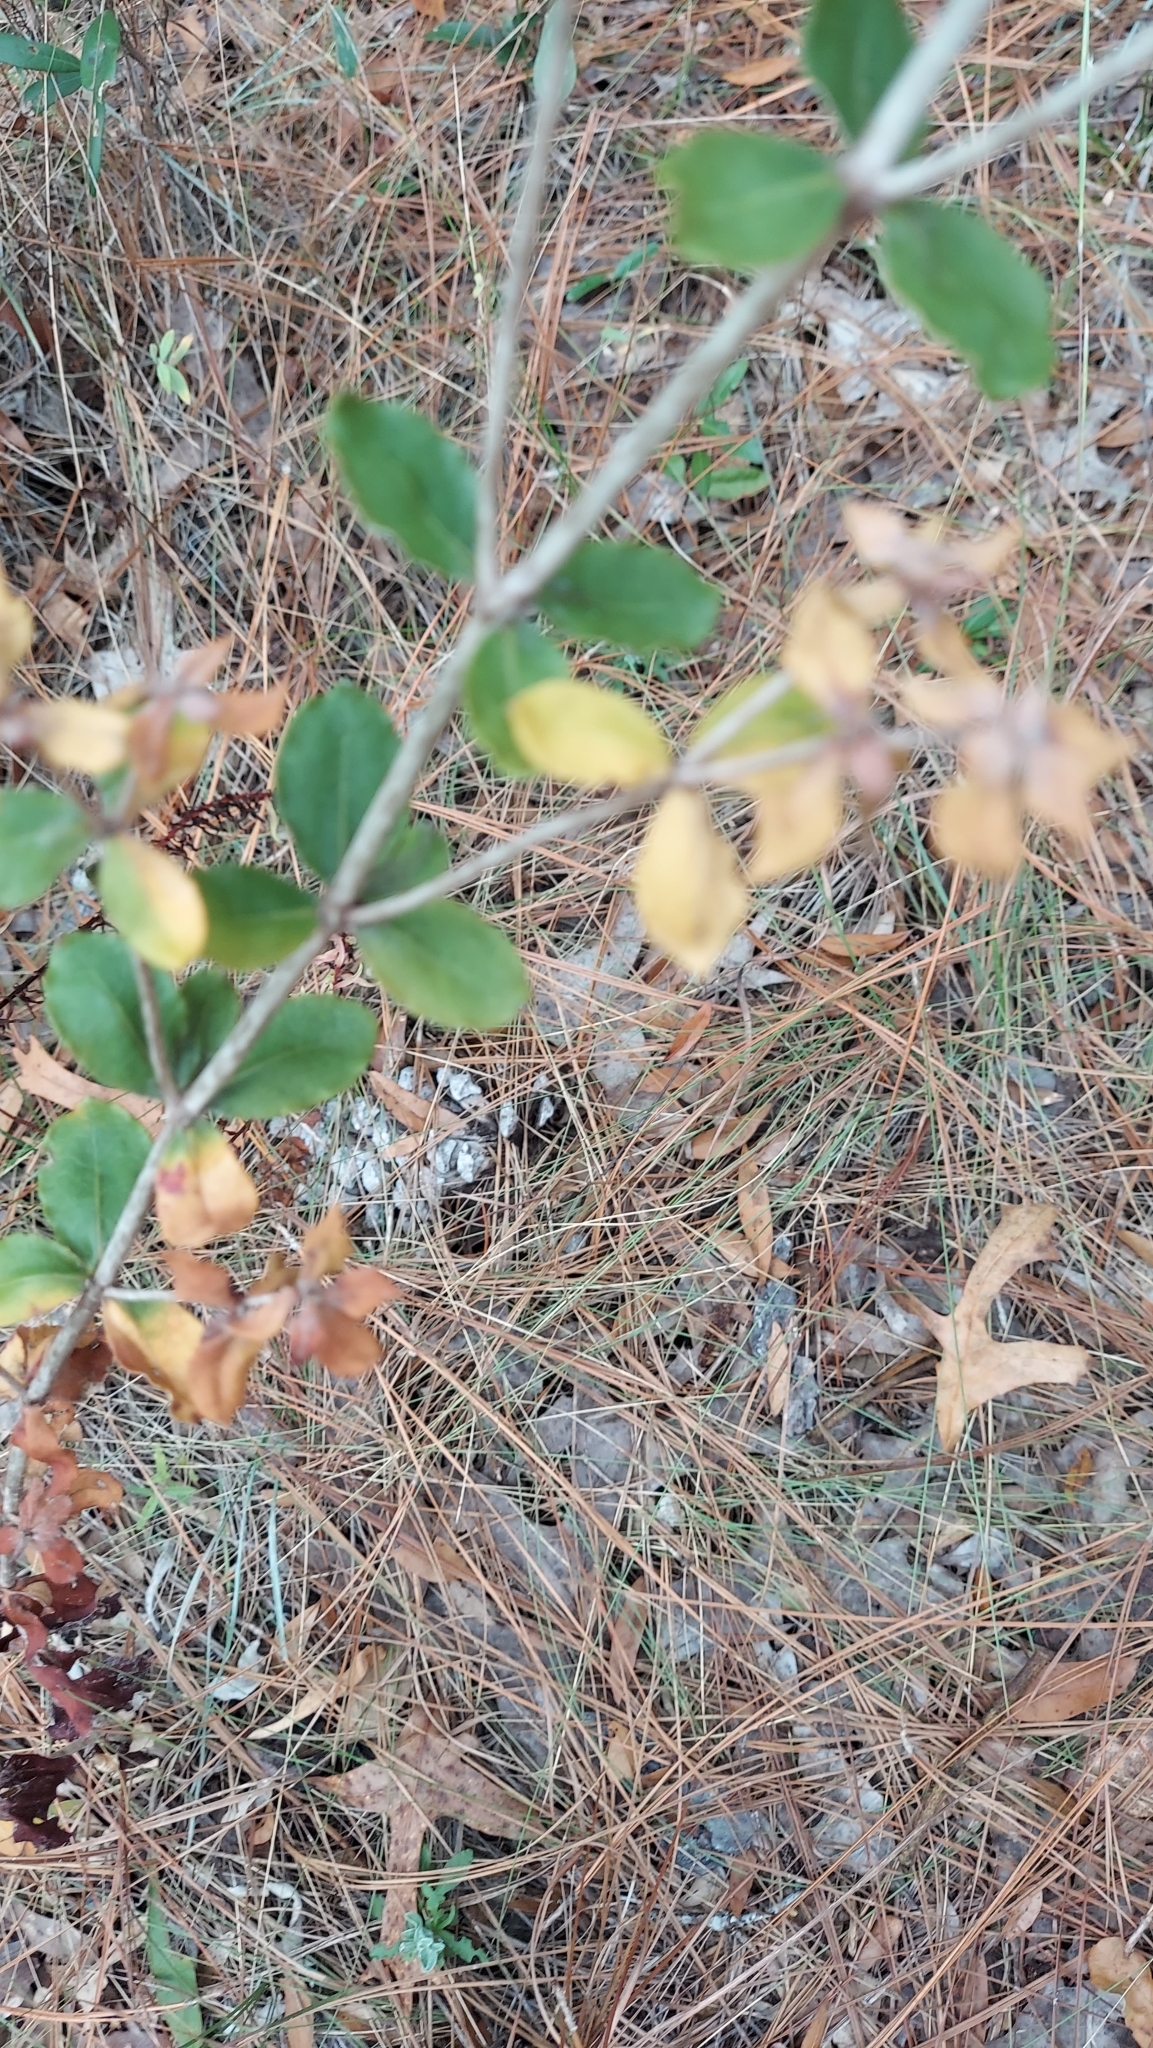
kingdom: Plantae
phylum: Tracheophyta
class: Magnoliopsida
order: Caryophyllales
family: Polygonaceae
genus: Eriogonum
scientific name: Eriogonum tomentosum
